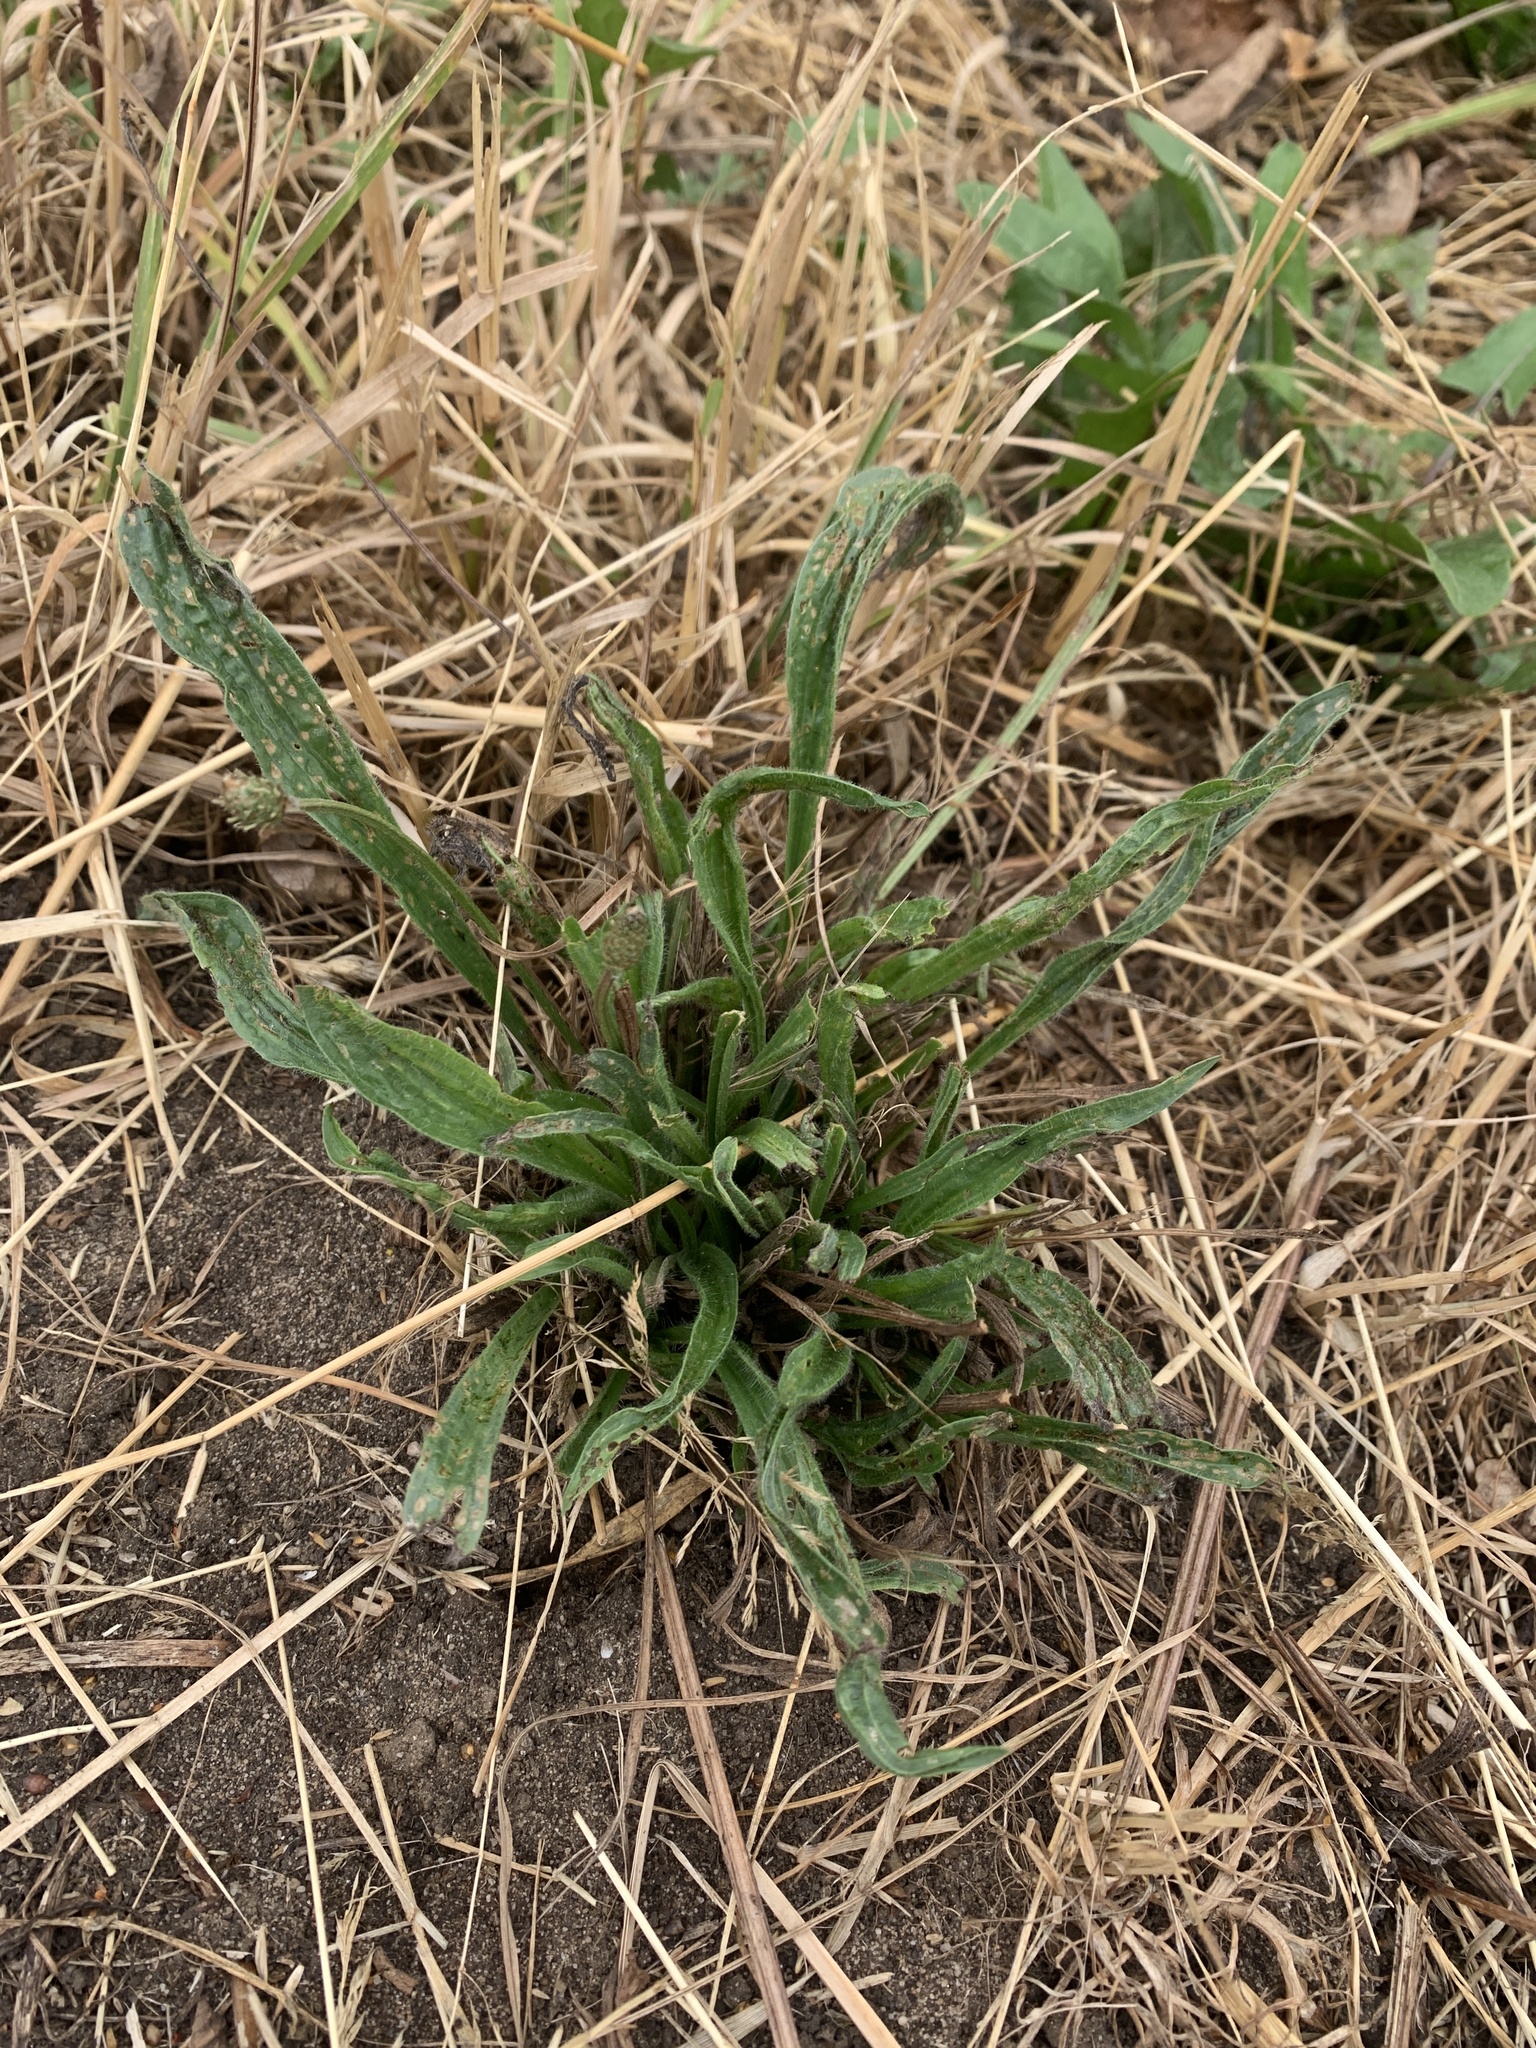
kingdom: Plantae
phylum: Tracheophyta
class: Magnoliopsida
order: Lamiales
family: Plantaginaceae
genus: Plantago
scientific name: Plantago lanceolata
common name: Ribwort plantain
